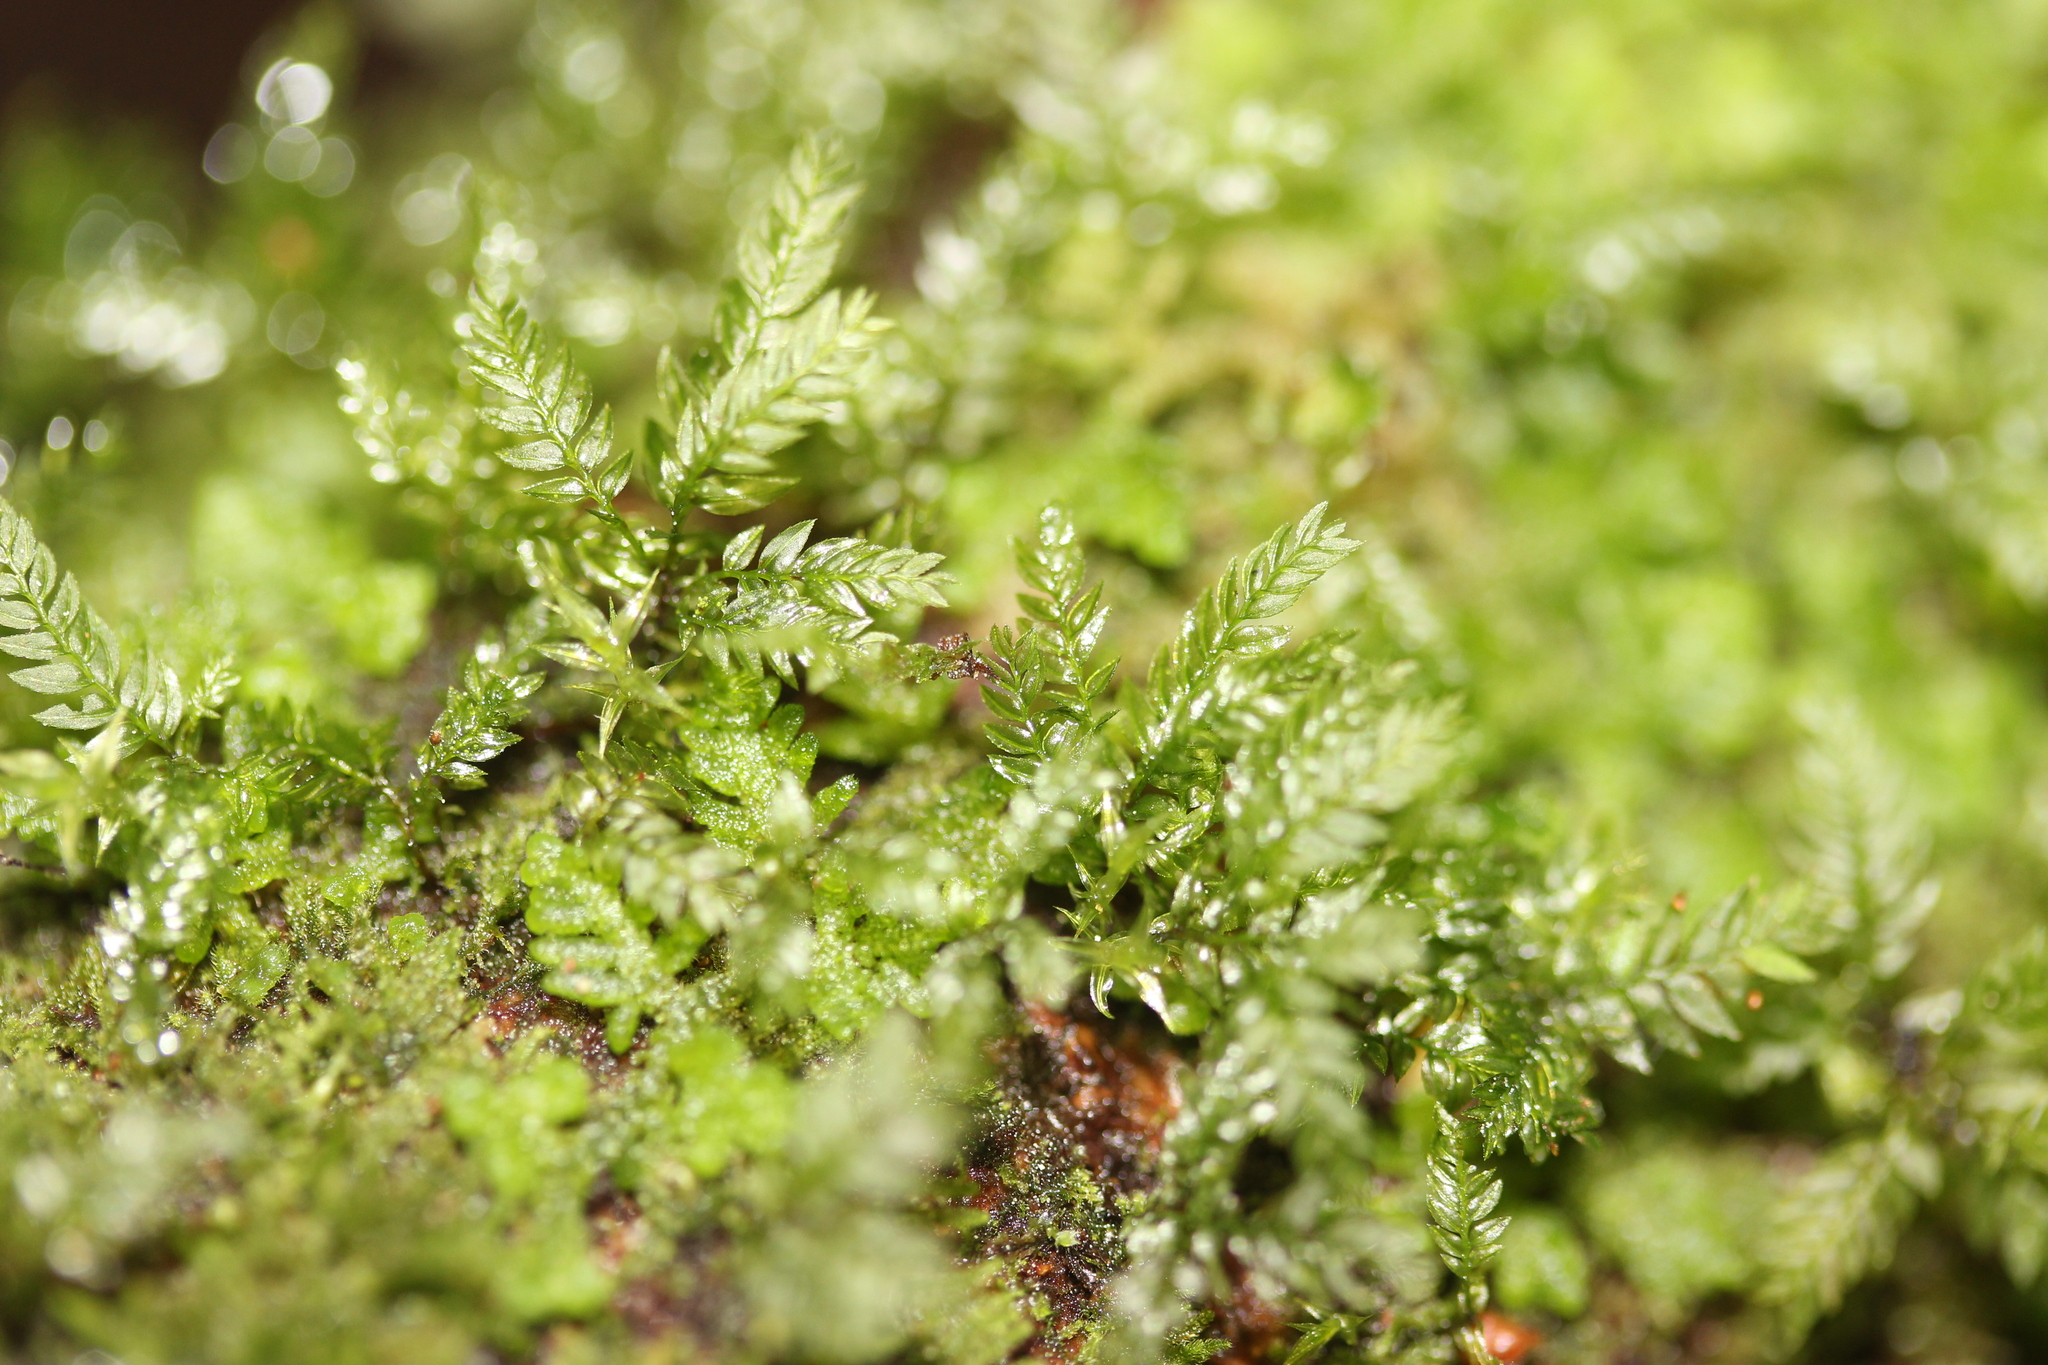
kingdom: Plantae
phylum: Bryophyta
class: Bryopsida
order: Aulacomniales
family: Aulacomniaceae
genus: Hymenodontopsis
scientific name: Hymenodontopsis bifaria
